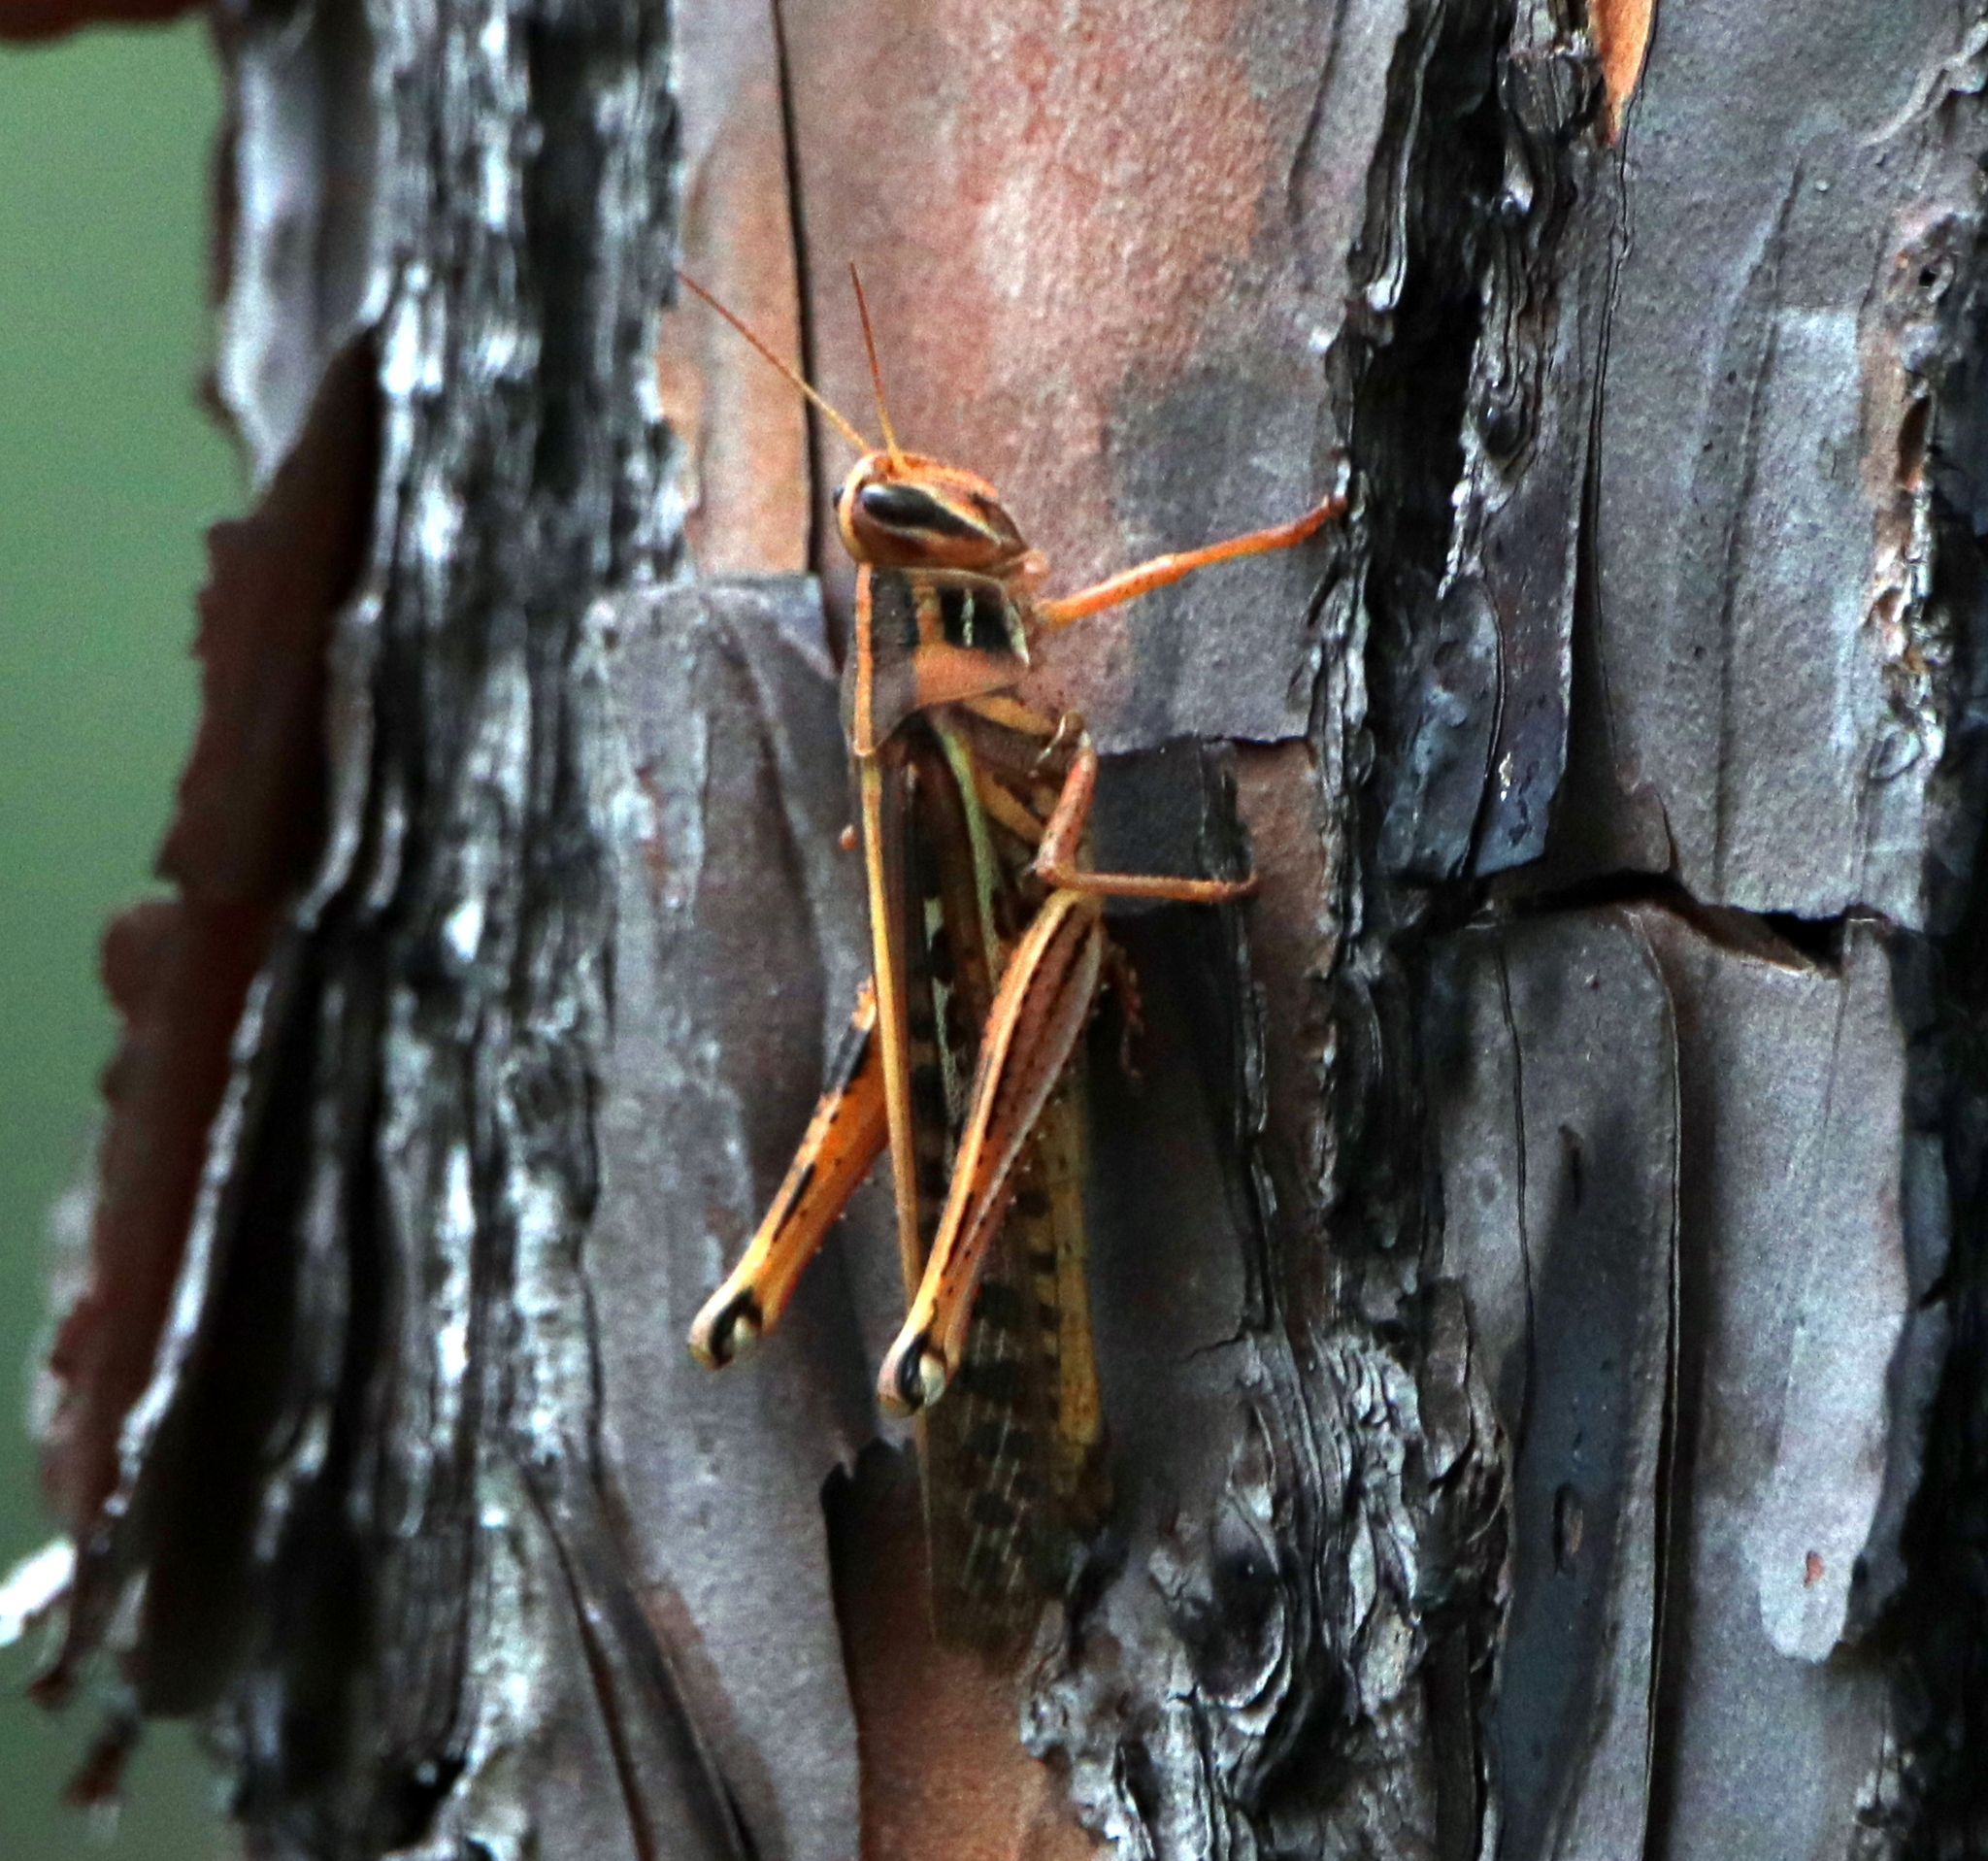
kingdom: Animalia
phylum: Arthropoda
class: Insecta
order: Orthoptera
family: Acrididae
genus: Schistocerca
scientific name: Schistocerca americana
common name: American bird locust
